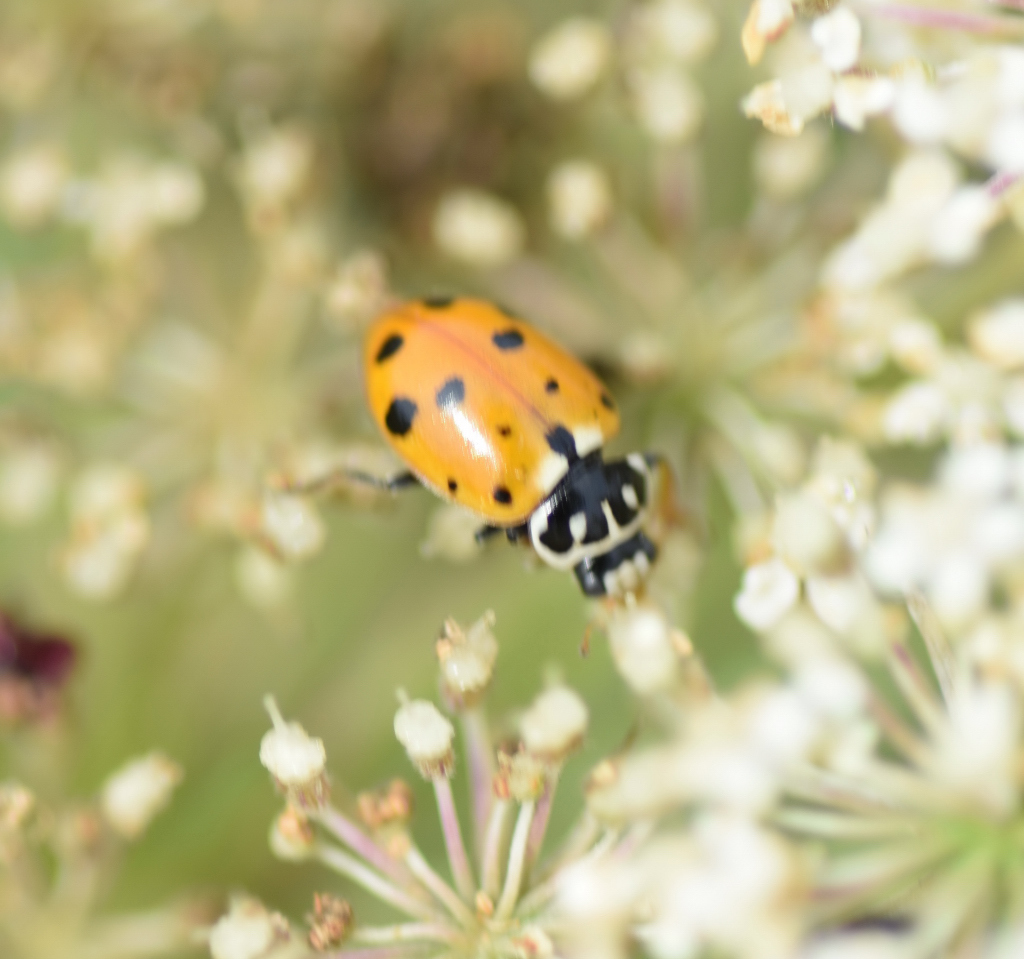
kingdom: Animalia
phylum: Arthropoda
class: Insecta
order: Coleoptera
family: Coccinellidae
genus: Hippodamia
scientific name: Hippodamia variegata
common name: Ladybird beetle
